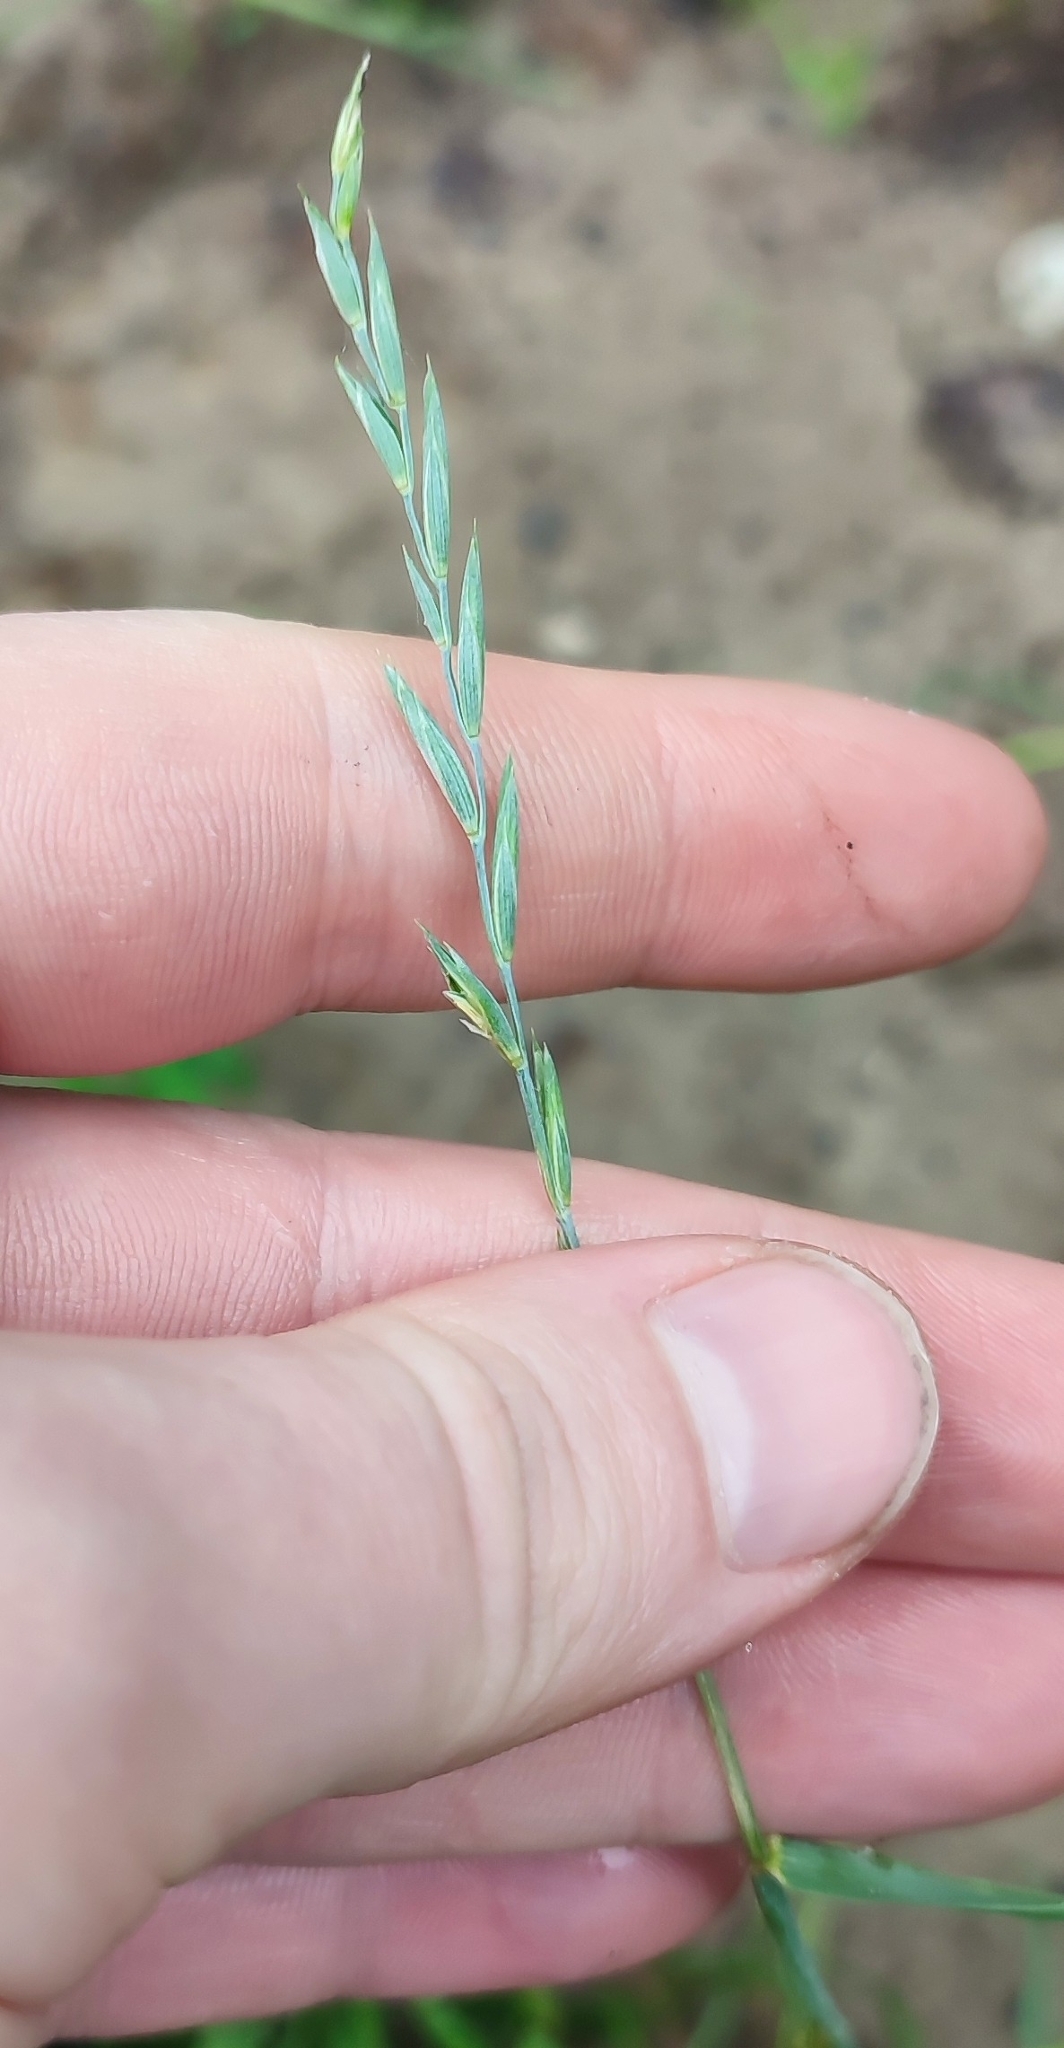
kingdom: Plantae
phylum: Tracheophyta
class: Liliopsida
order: Poales
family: Poaceae
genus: Elymus
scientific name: Elymus repens
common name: Quackgrass
